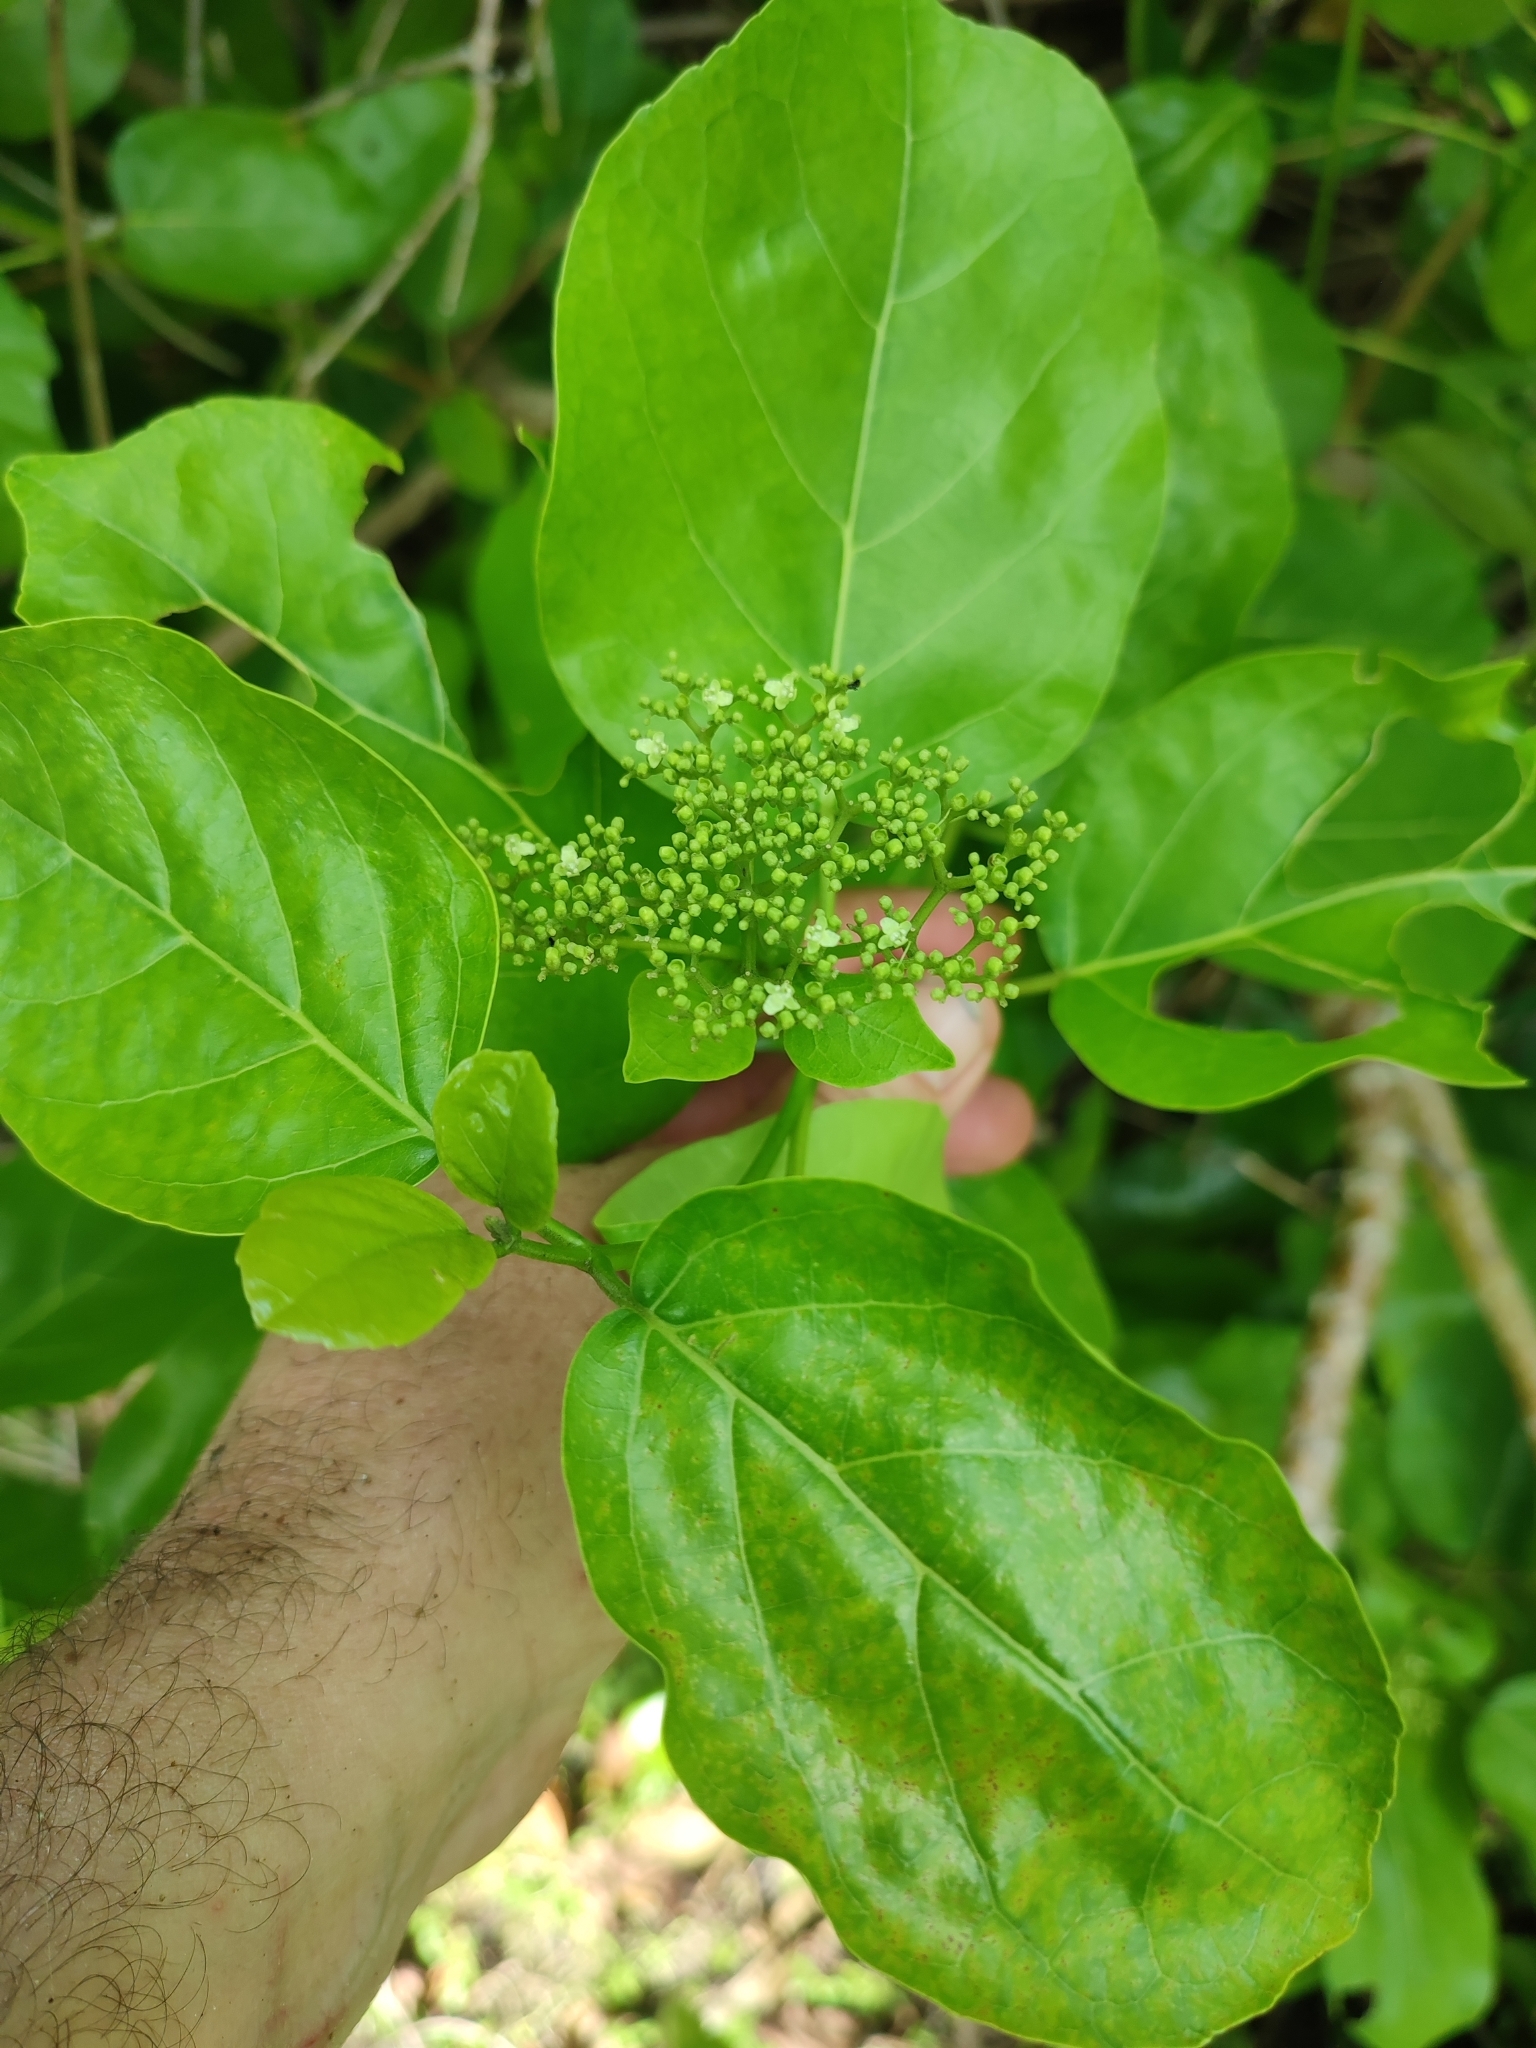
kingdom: Plantae
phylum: Tracheophyta
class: Magnoliopsida
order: Lamiales
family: Lamiaceae
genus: Premna
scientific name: Premna serratifolia
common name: Bastard guelder
